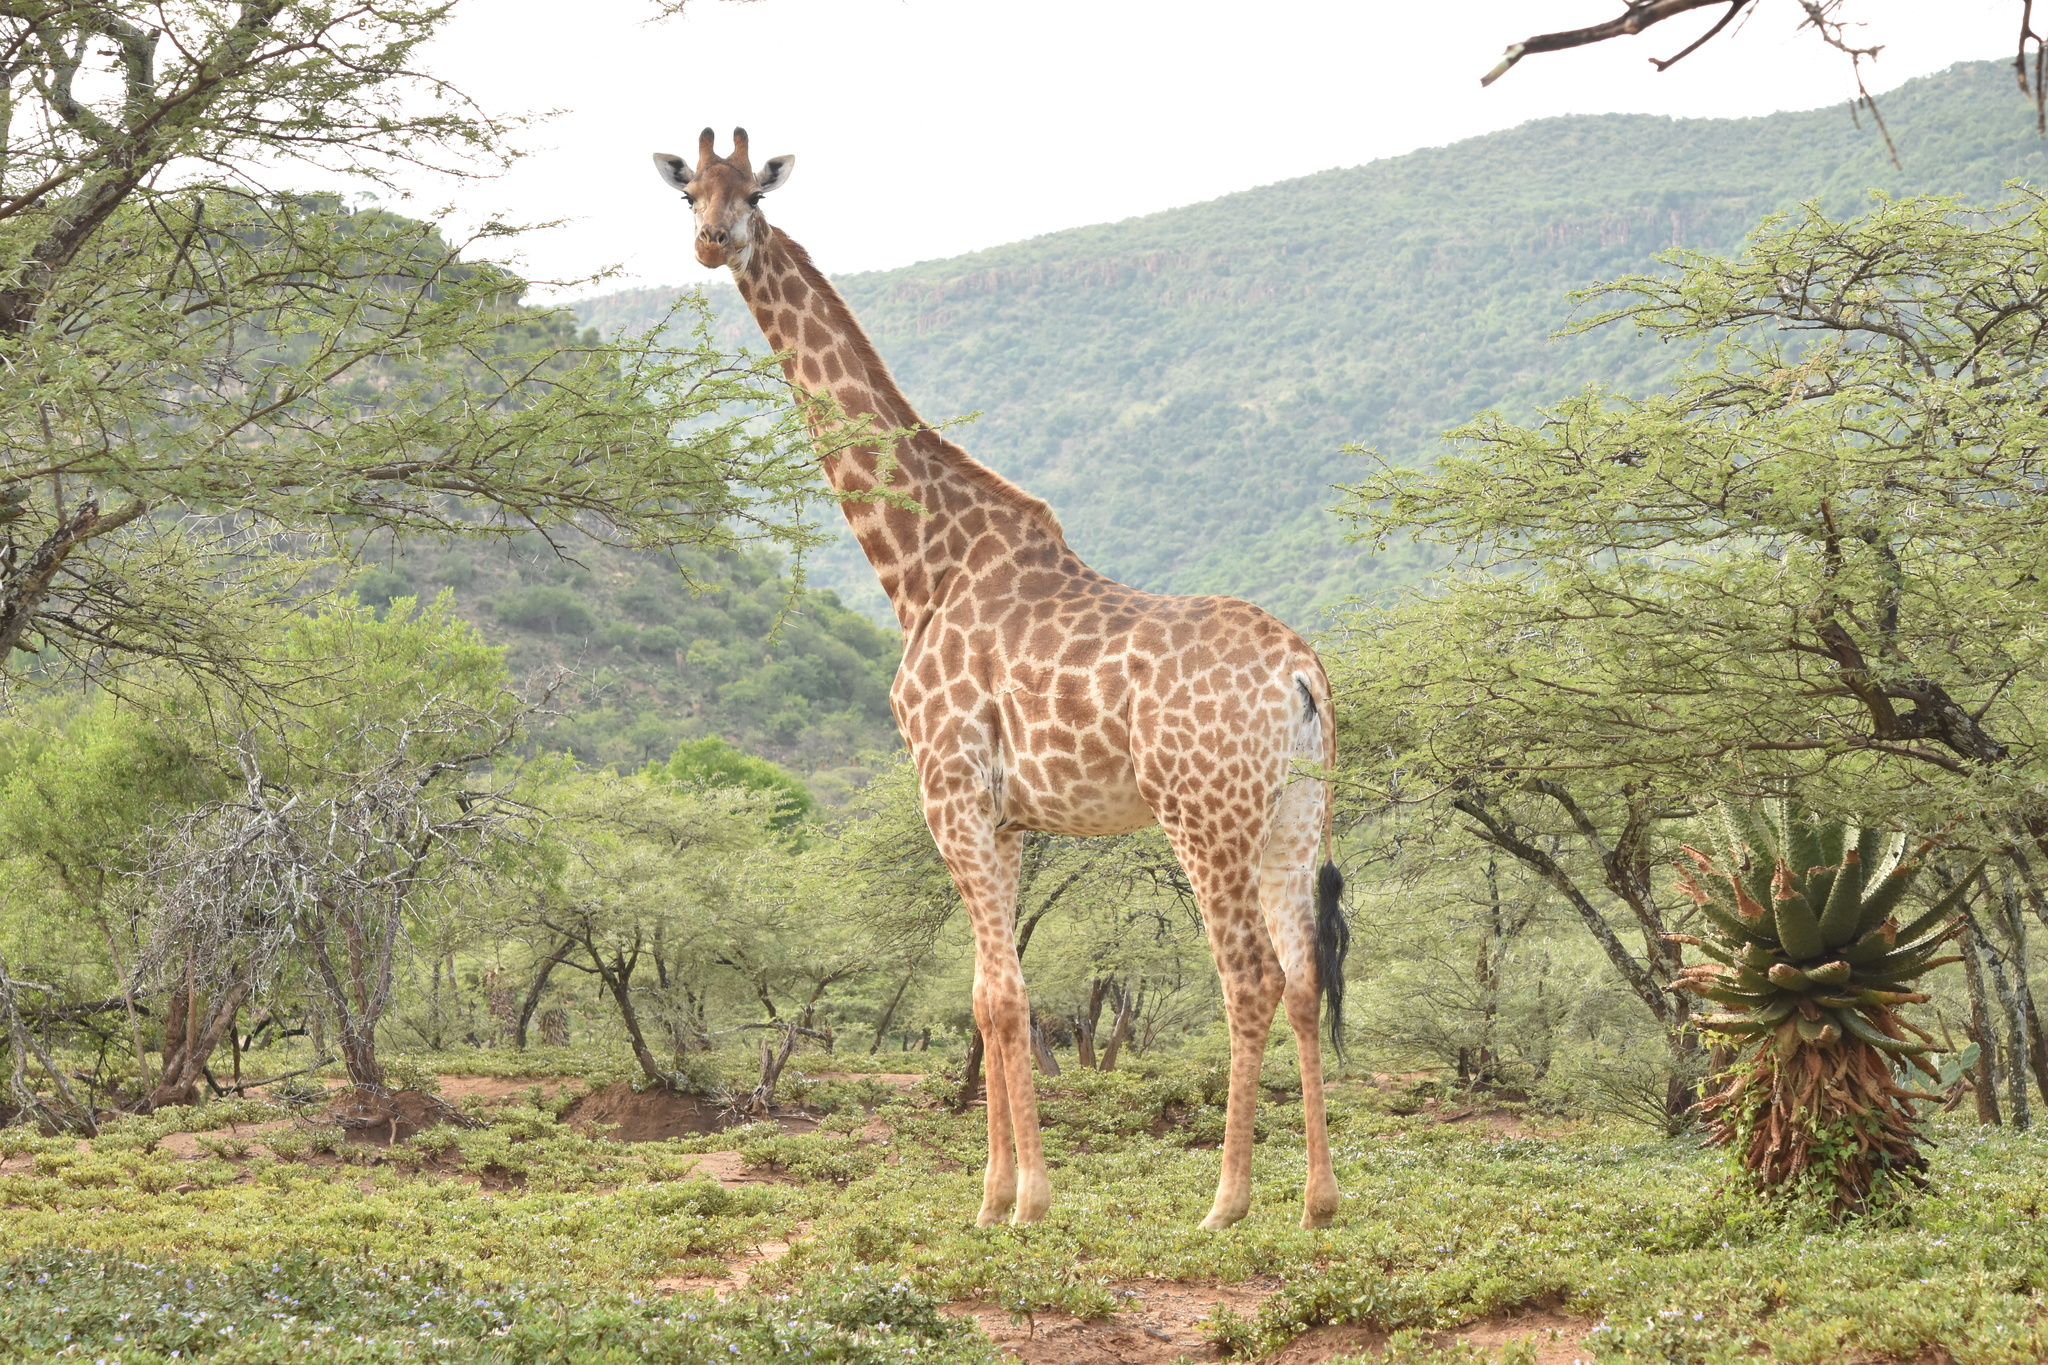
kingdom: Animalia
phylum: Chordata
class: Mammalia
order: Artiodactyla
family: Giraffidae
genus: Giraffa
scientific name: Giraffa giraffa
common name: Southern giraffe
